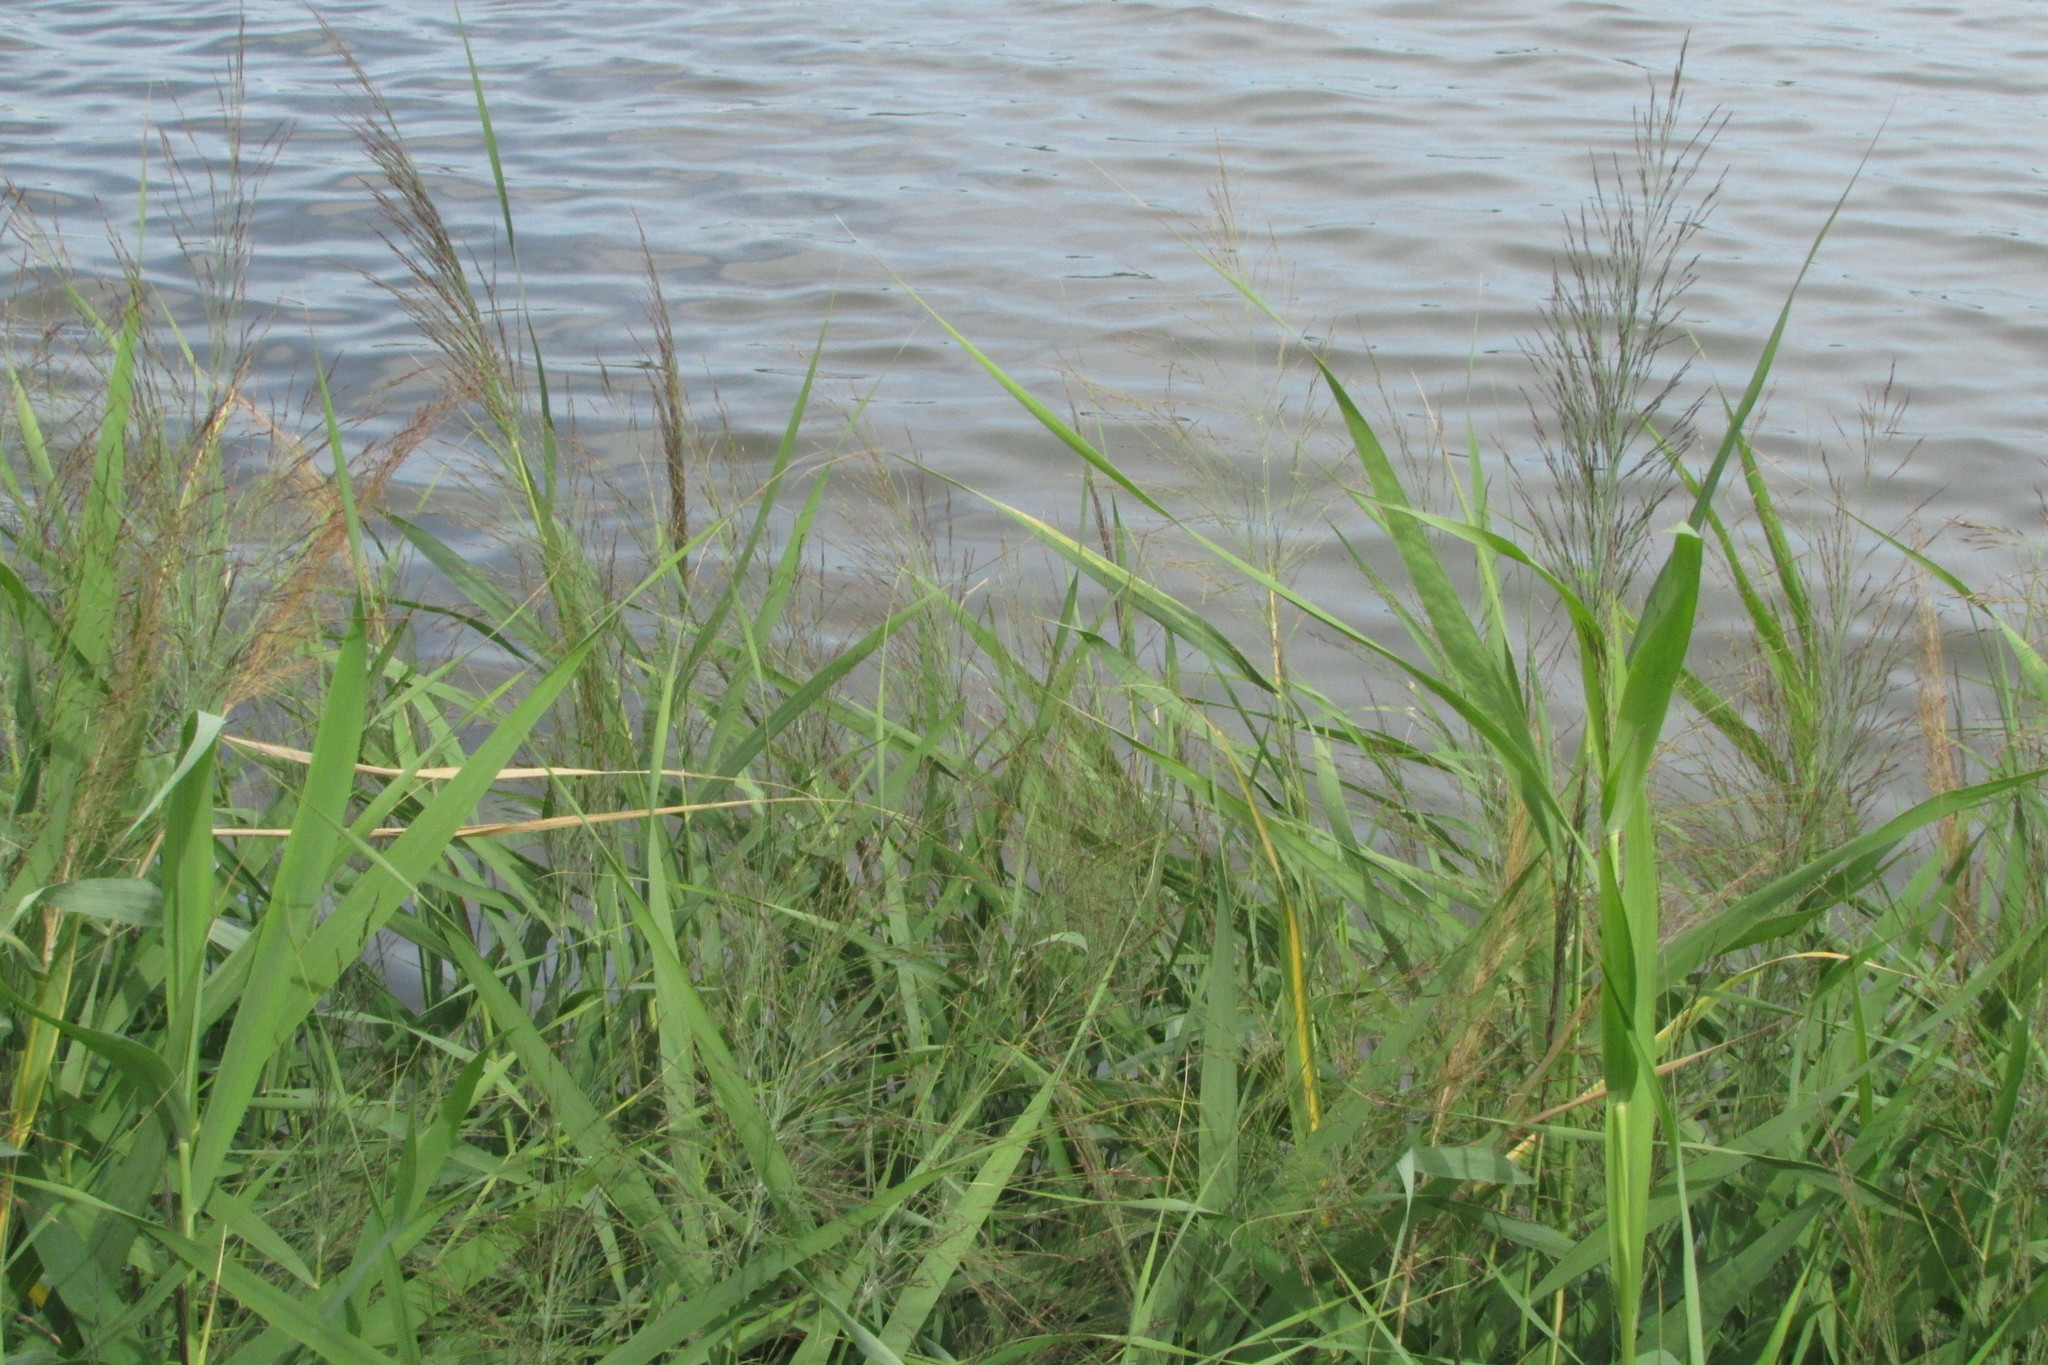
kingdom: Plantae
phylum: Tracheophyta
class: Liliopsida
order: Poales
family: Poaceae
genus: Phragmites
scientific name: Phragmites australis
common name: Common reed
